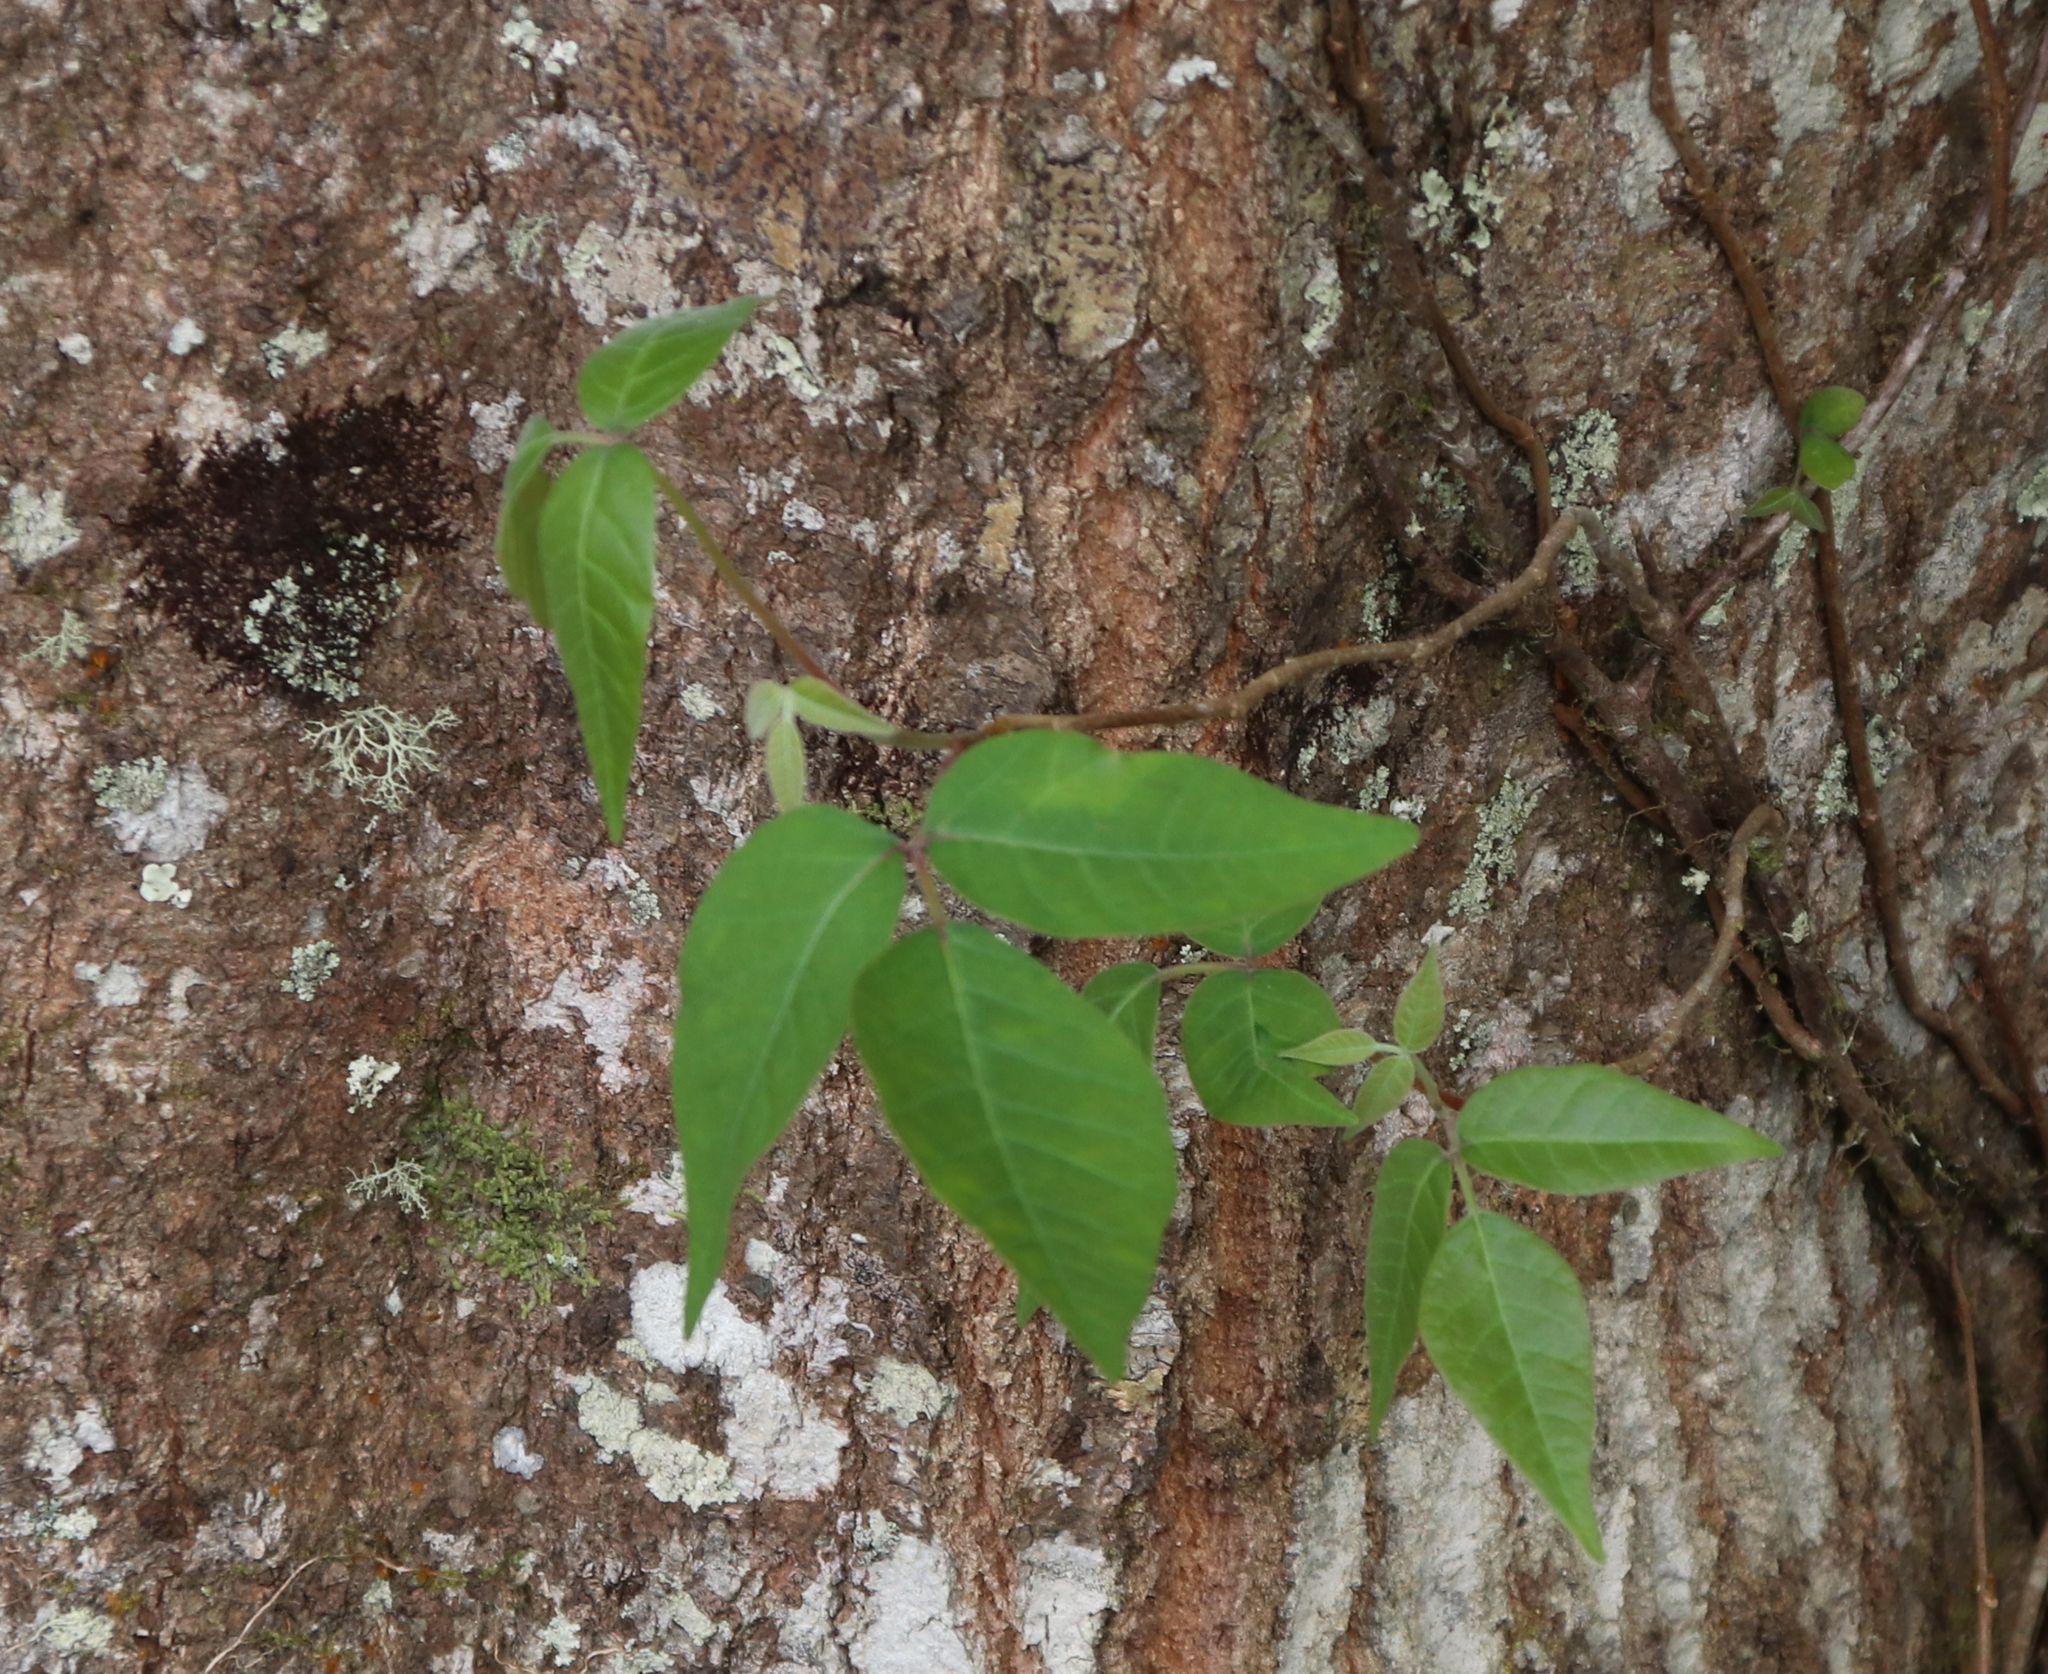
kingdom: Plantae
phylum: Tracheophyta
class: Magnoliopsida
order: Sapindales
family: Anacardiaceae
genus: Toxicodendron
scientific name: Toxicodendron radicans
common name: Poison ivy
